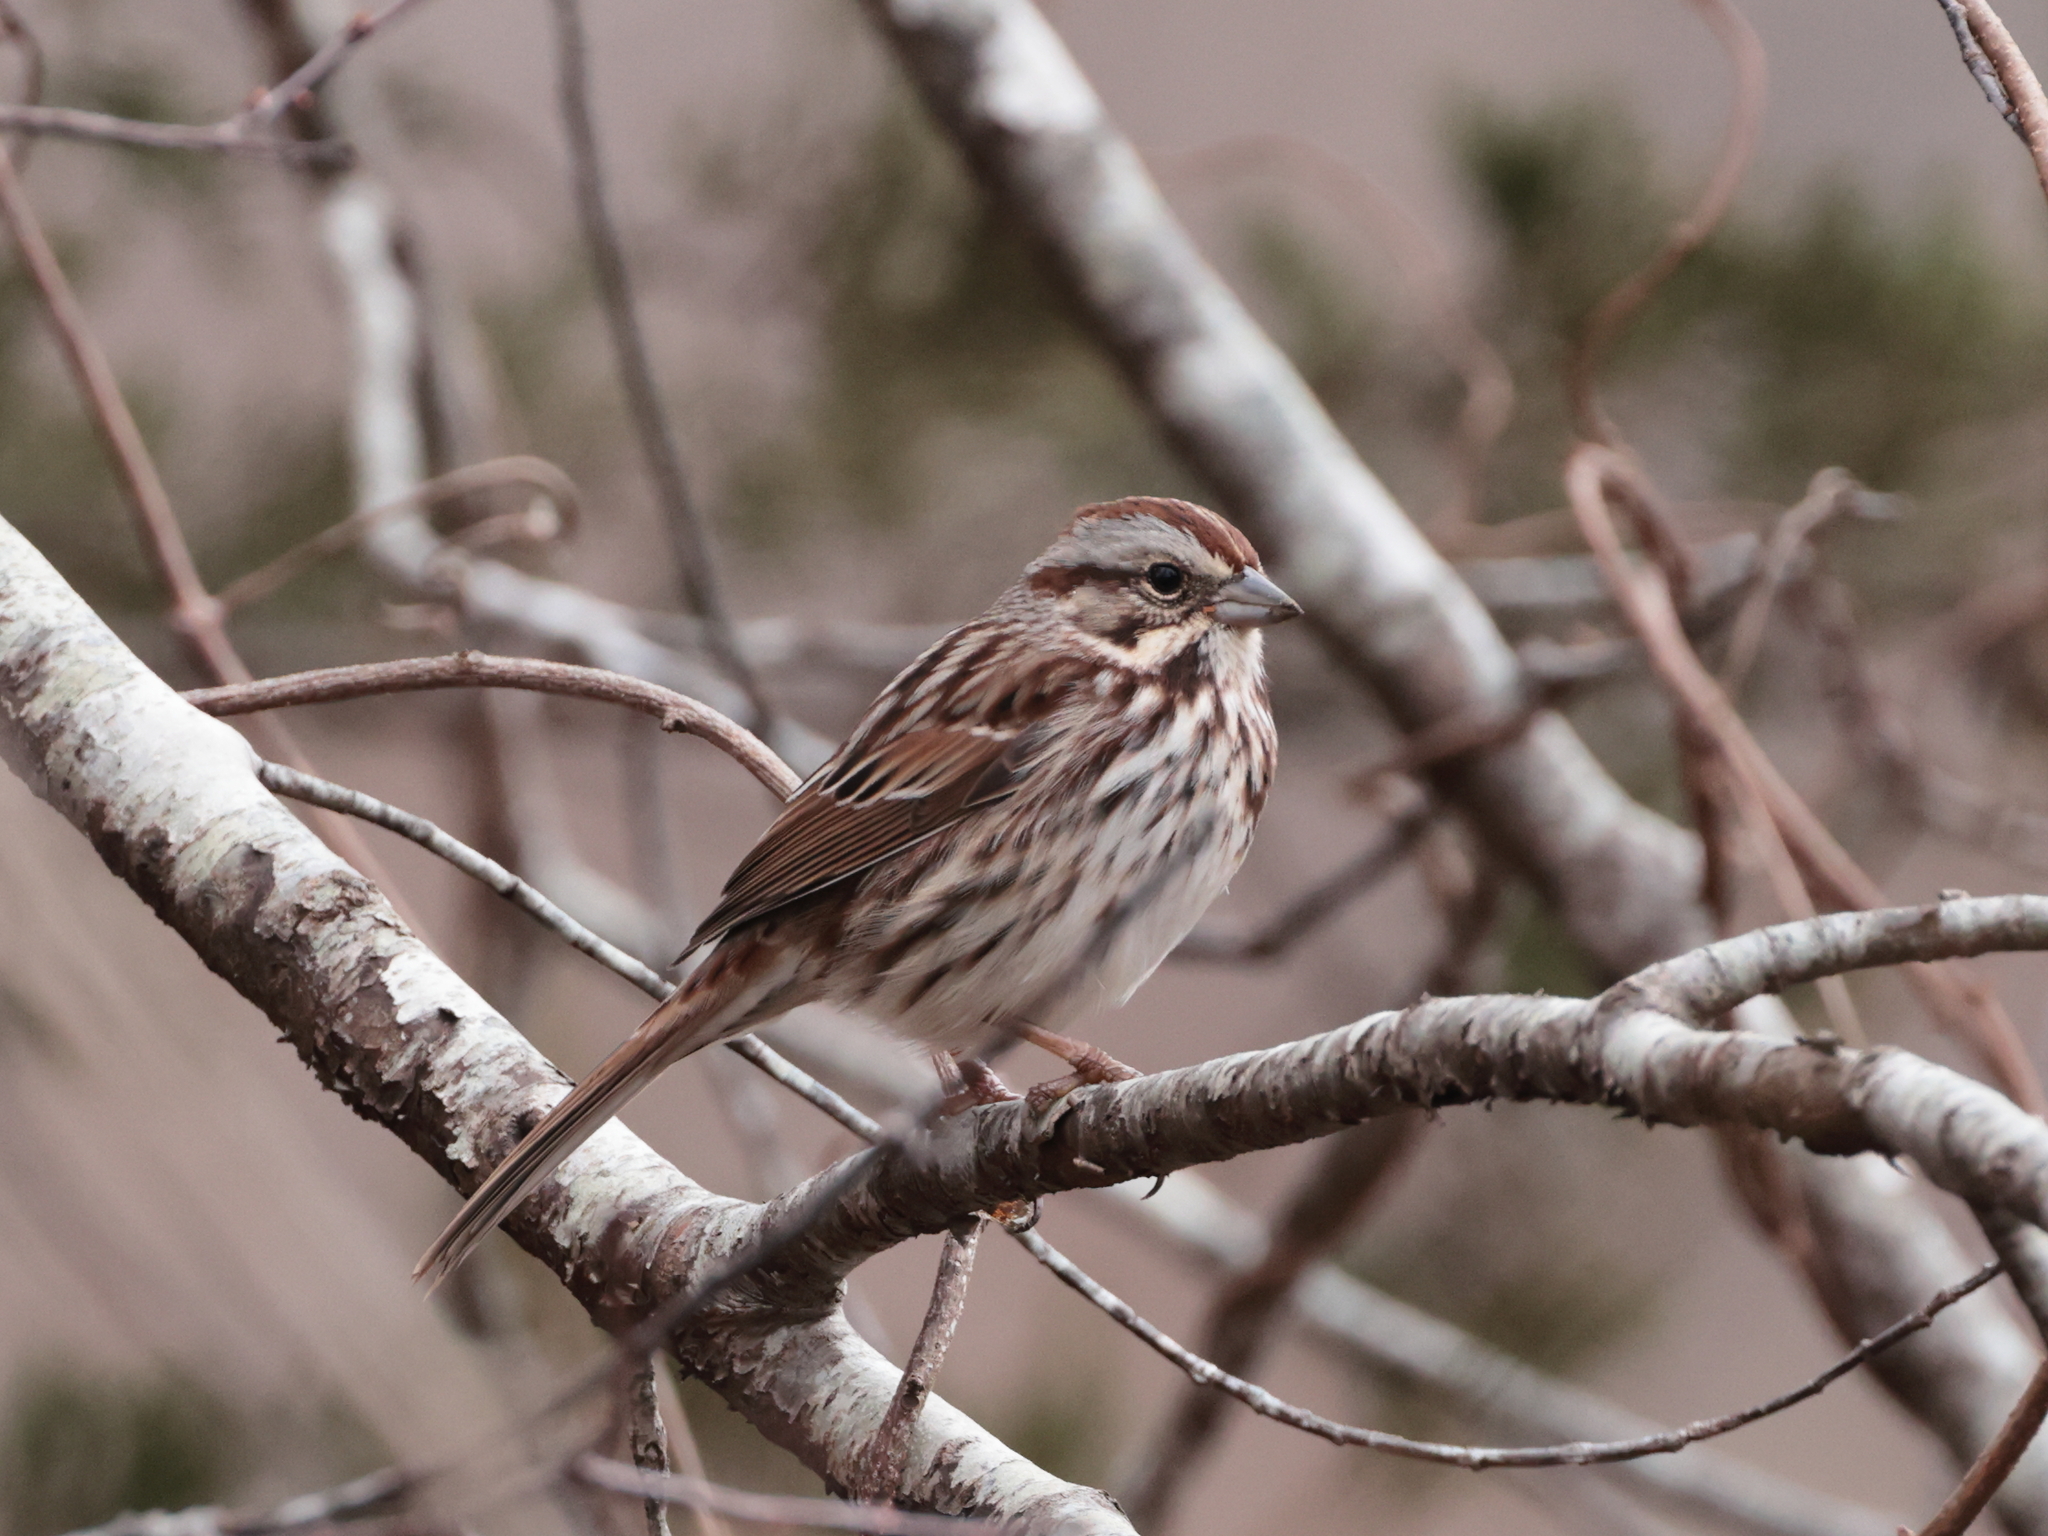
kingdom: Animalia
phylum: Chordata
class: Aves
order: Passeriformes
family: Passerellidae
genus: Melospiza
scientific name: Melospiza melodia
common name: Song sparrow
